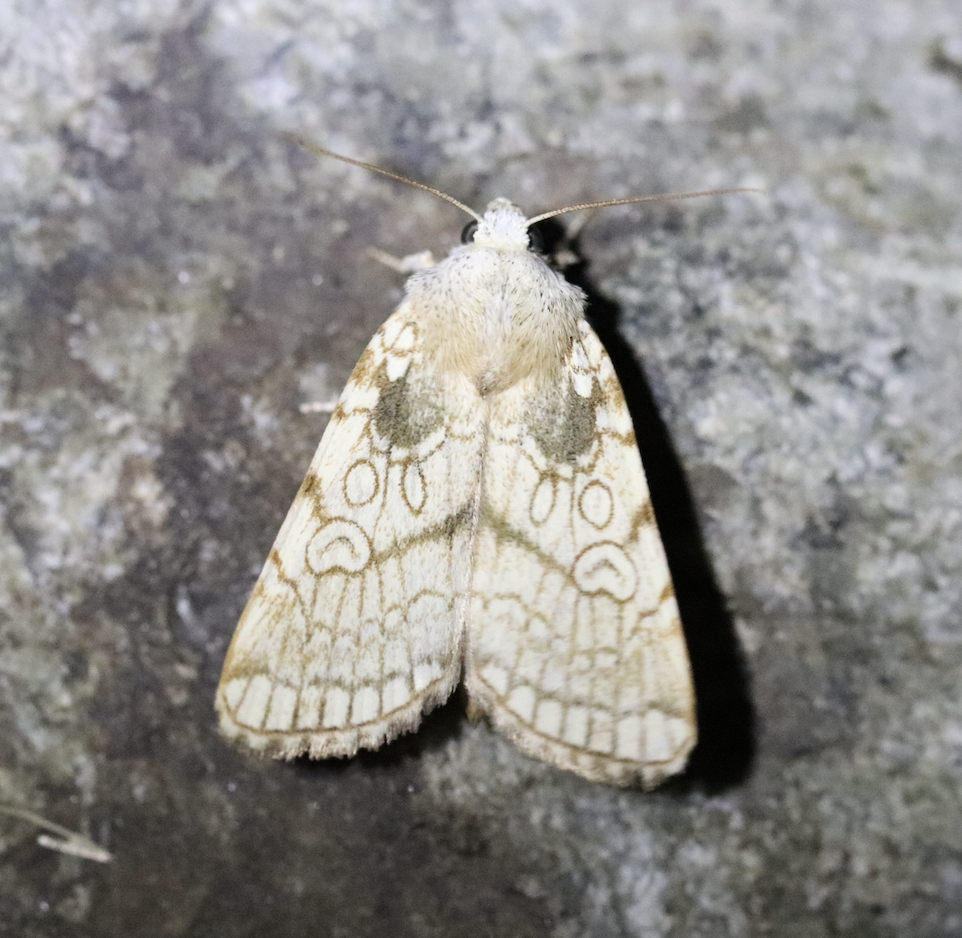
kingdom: Animalia
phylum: Arthropoda
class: Insecta
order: Lepidoptera
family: Noctuidae
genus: Dicycla
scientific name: Dicycla oo
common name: Heart moth
